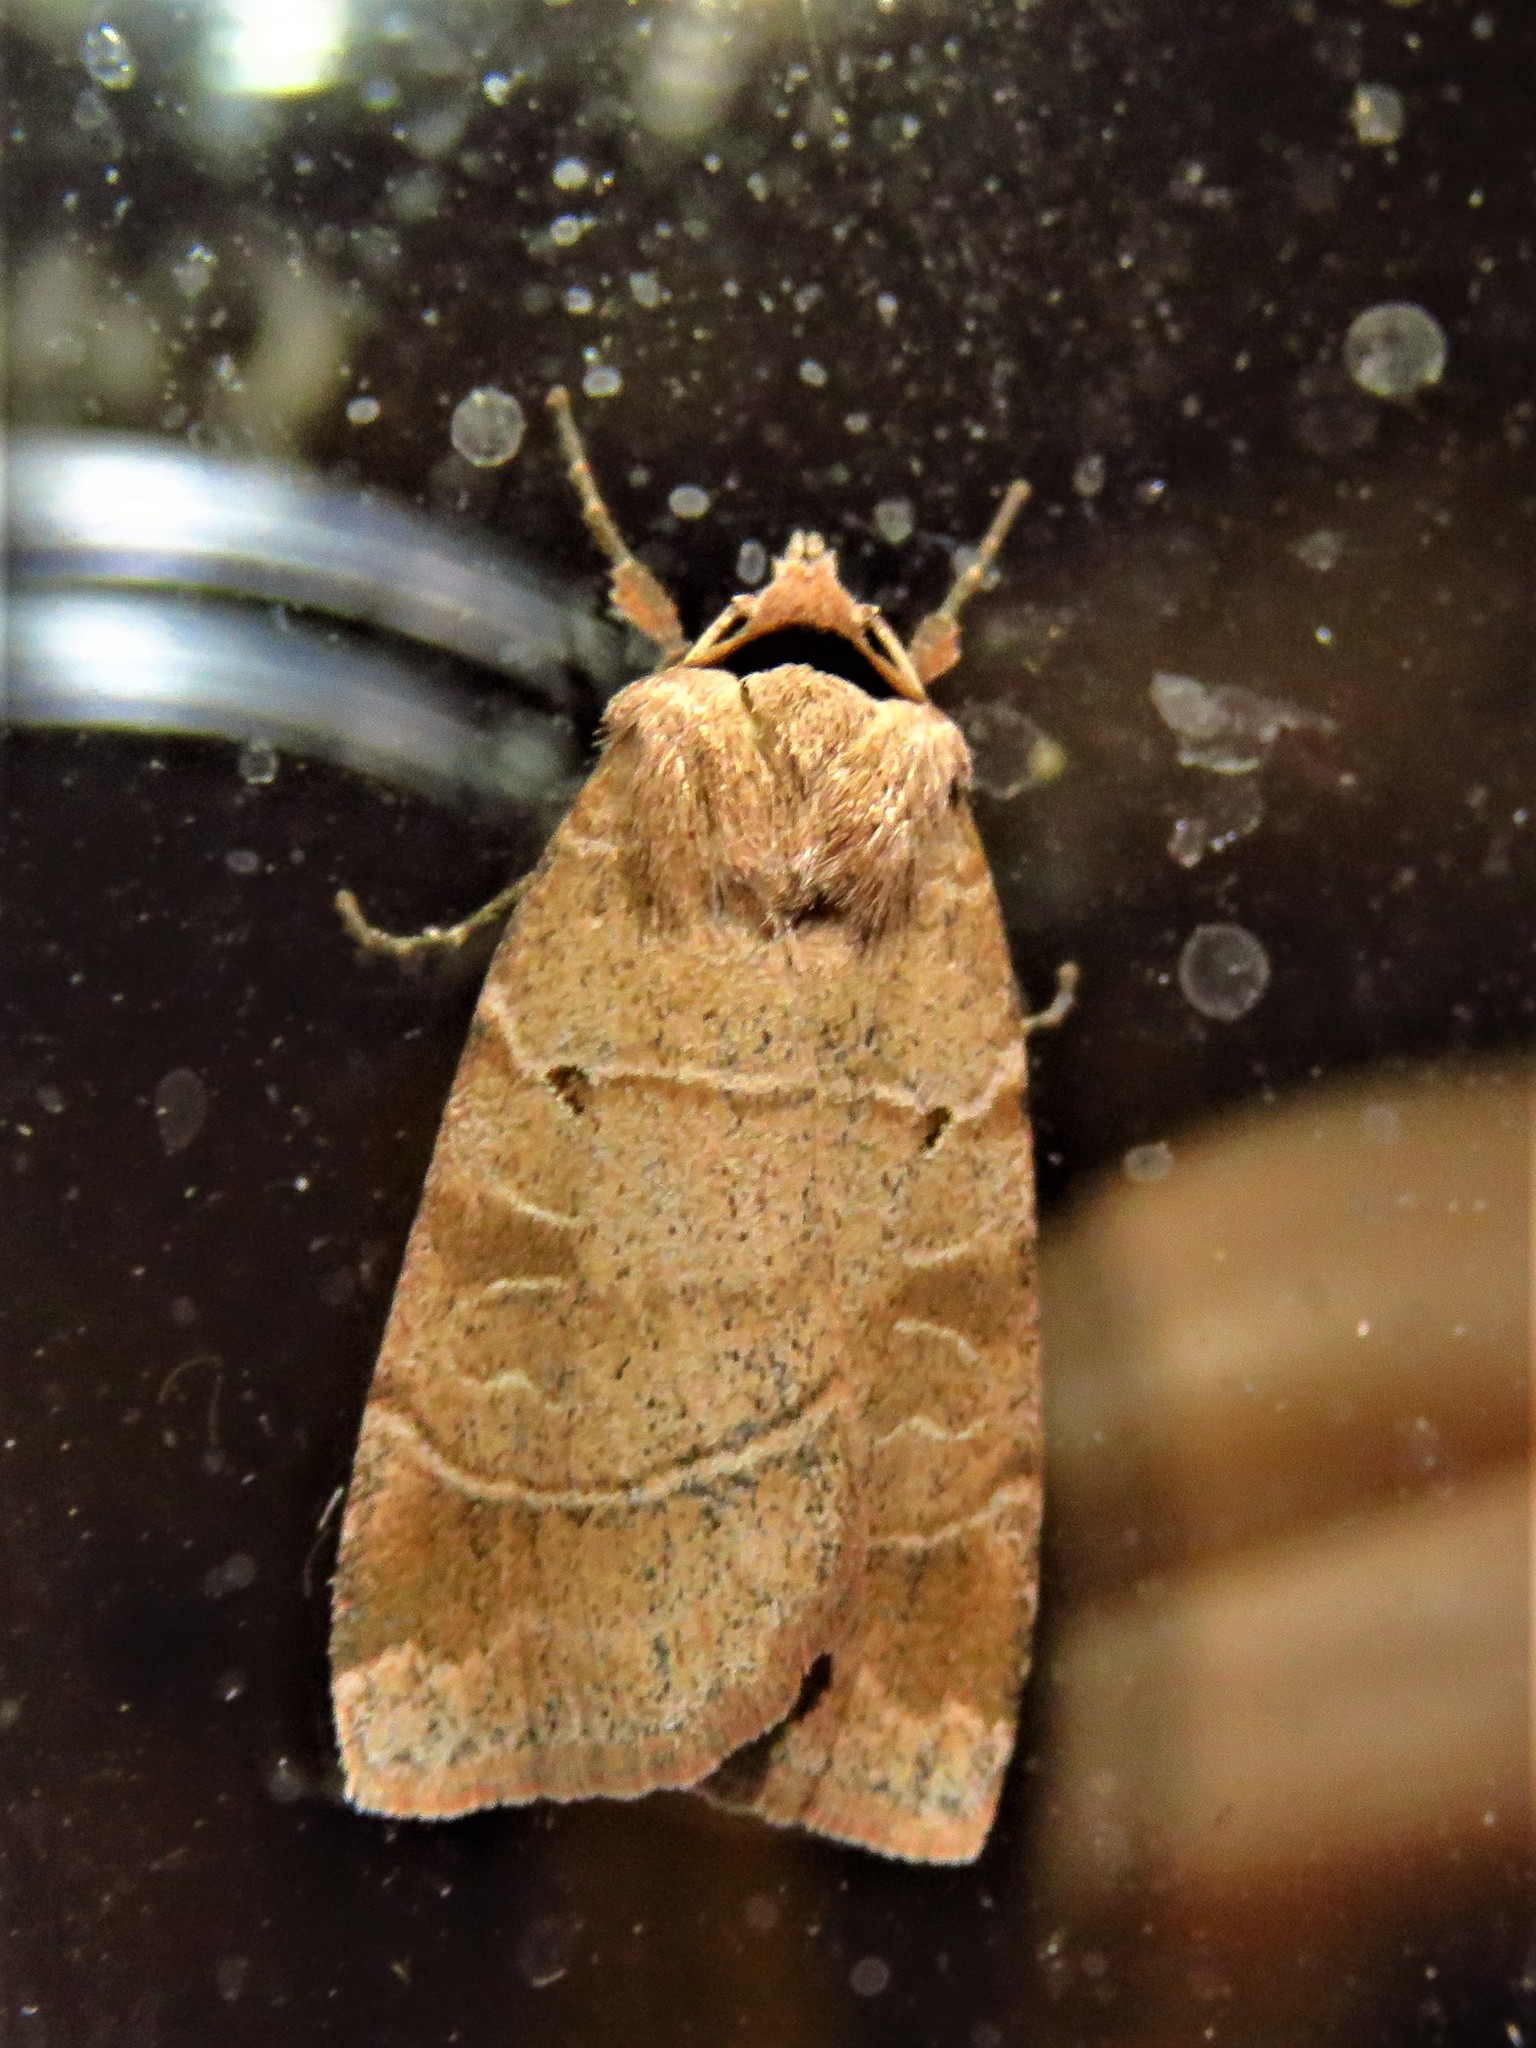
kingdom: Animalia
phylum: Arthropoda
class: Insecta
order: Lepidoptera
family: Noctuidae
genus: Agnorisma
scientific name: Agnorisma badinodis
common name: Pale-banded dart
